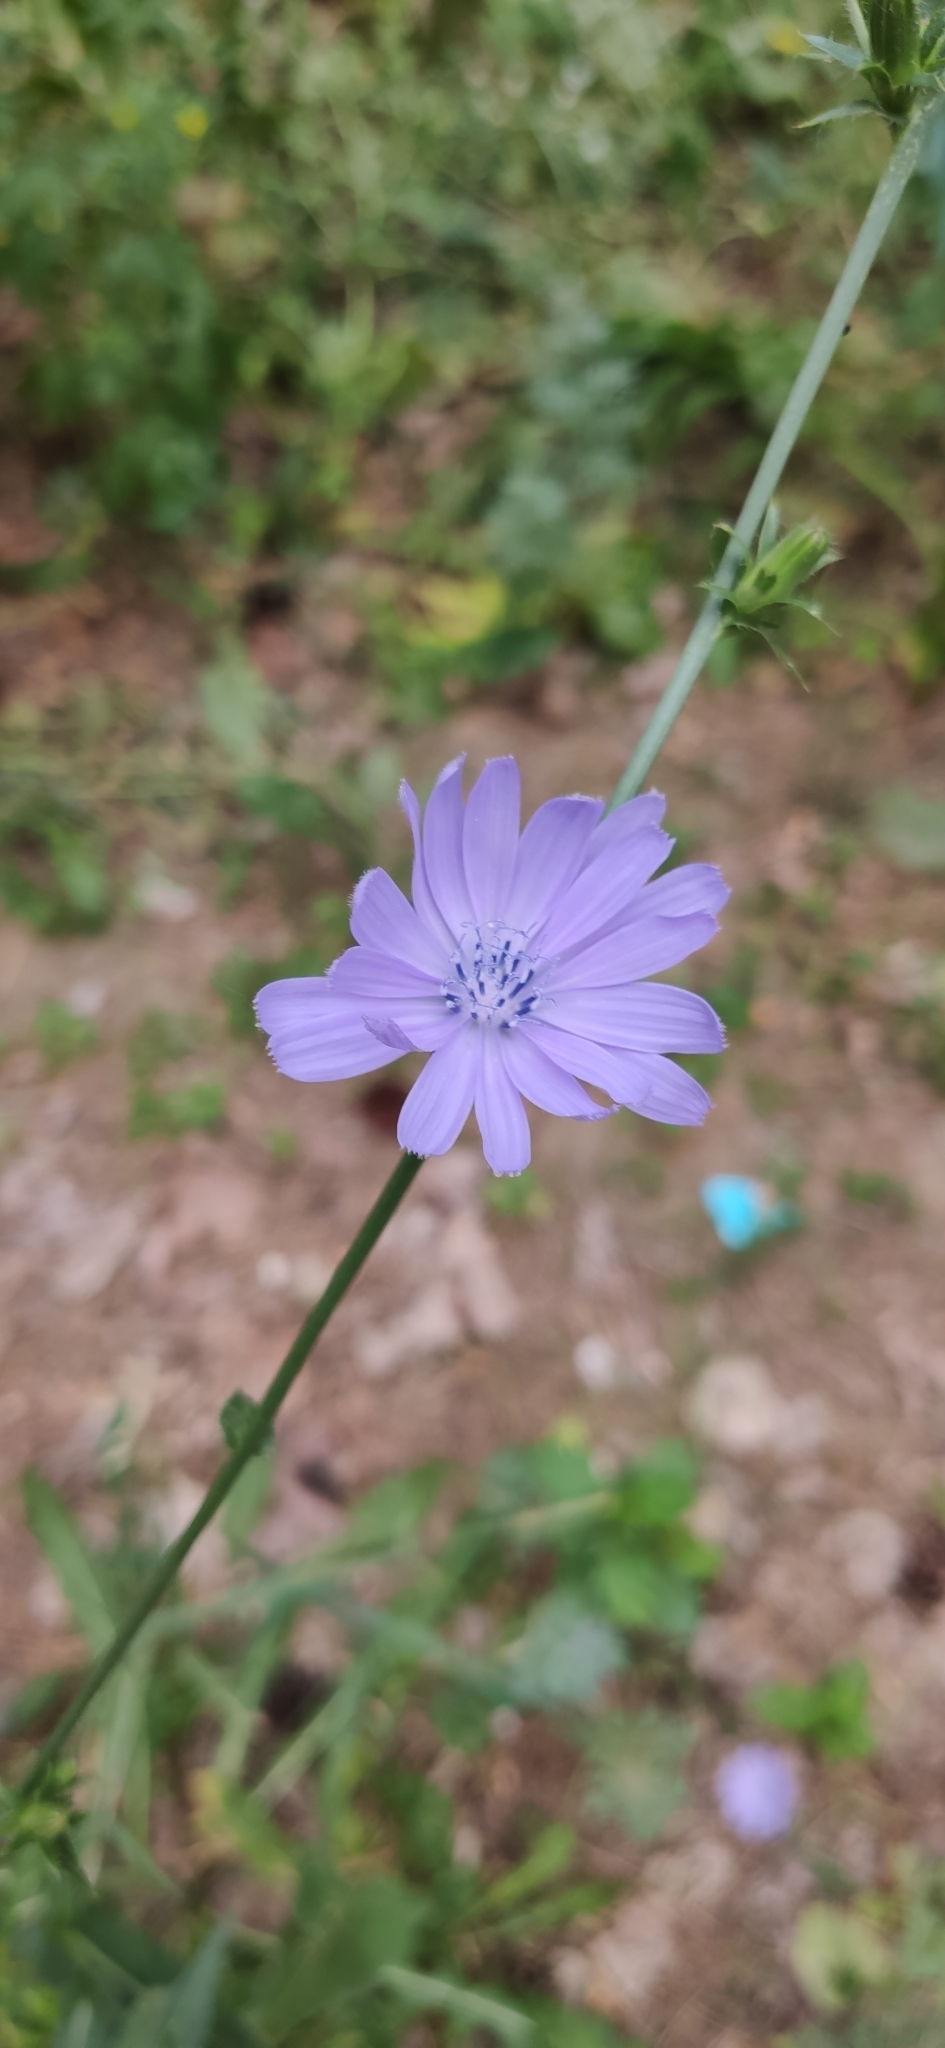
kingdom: Plantae
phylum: Tracheophyta
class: Magnoliopsida
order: Asterales
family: Asteraceae
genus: Cichorium
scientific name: Cichorium intybus
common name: Chicory
